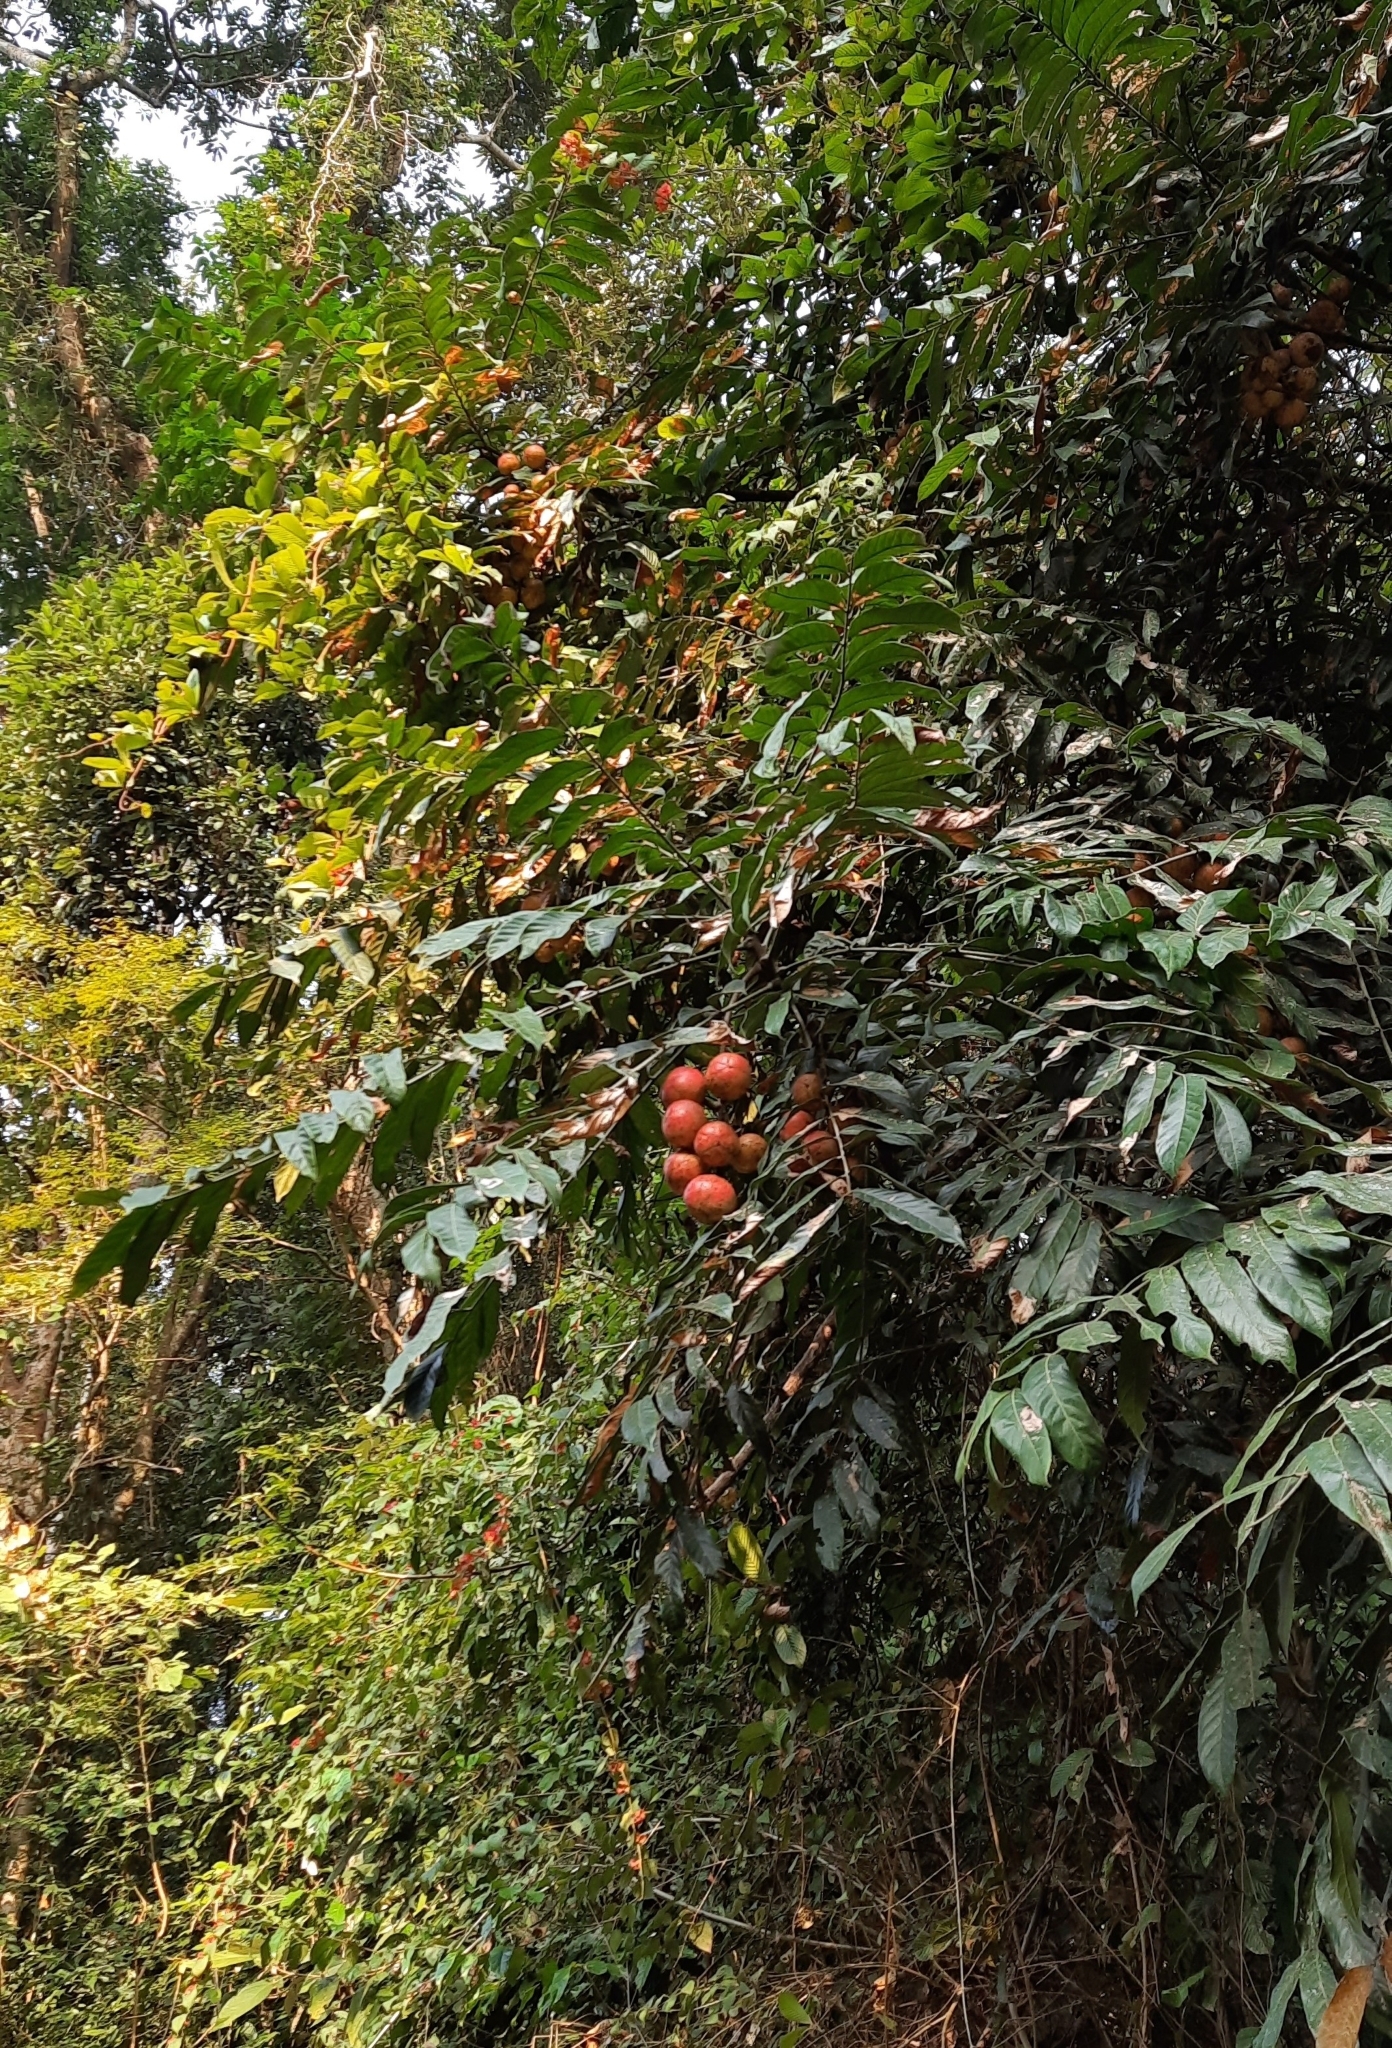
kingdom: Plantae
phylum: Tracheophyta
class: Magnoliopsida
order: Sapindales
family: Meliaceae
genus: Chisocheton
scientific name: Chisocheton cumingianus
